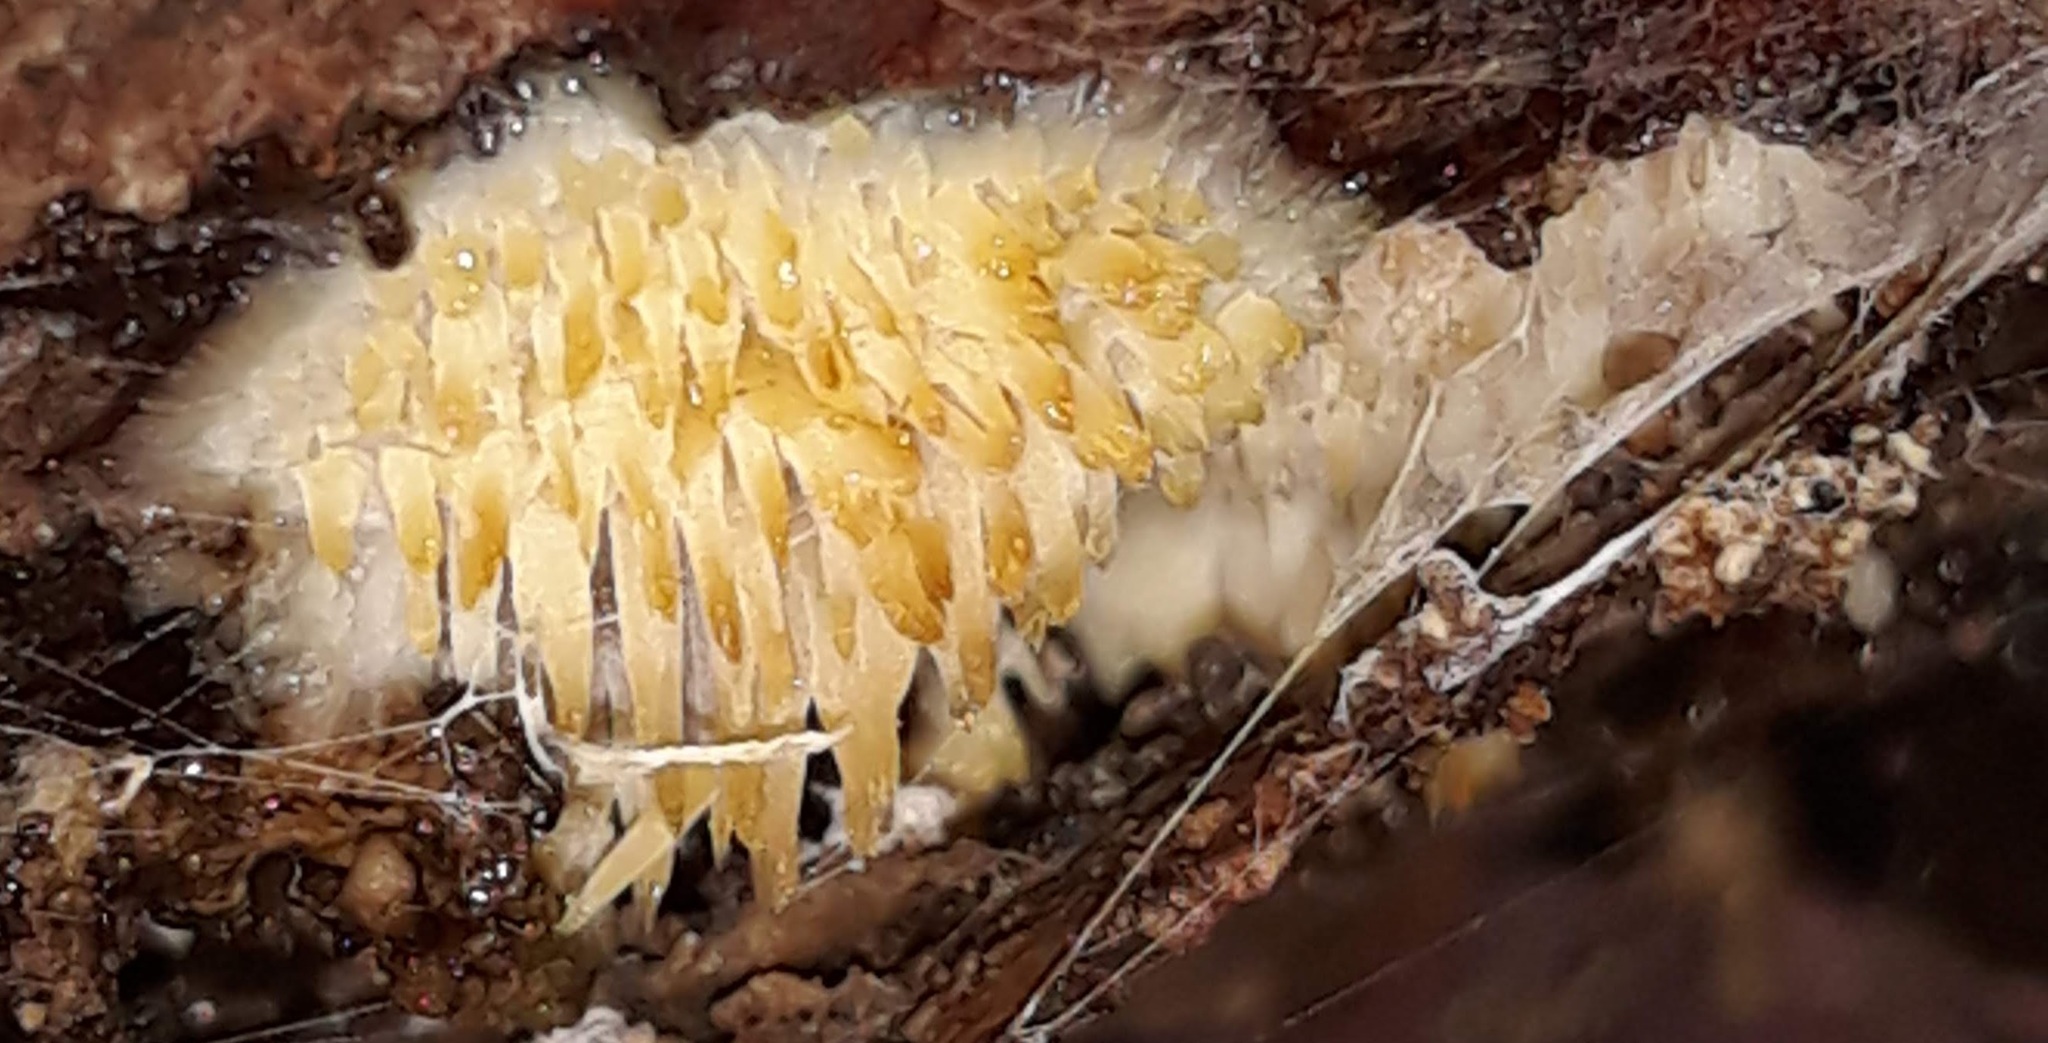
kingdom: Fungi
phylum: Basidiomycota
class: Agaricomycetes
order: Agaricales
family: Radulomycetaceae
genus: Radulomyces
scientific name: Radulomyces copelandii
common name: Asian beauty
